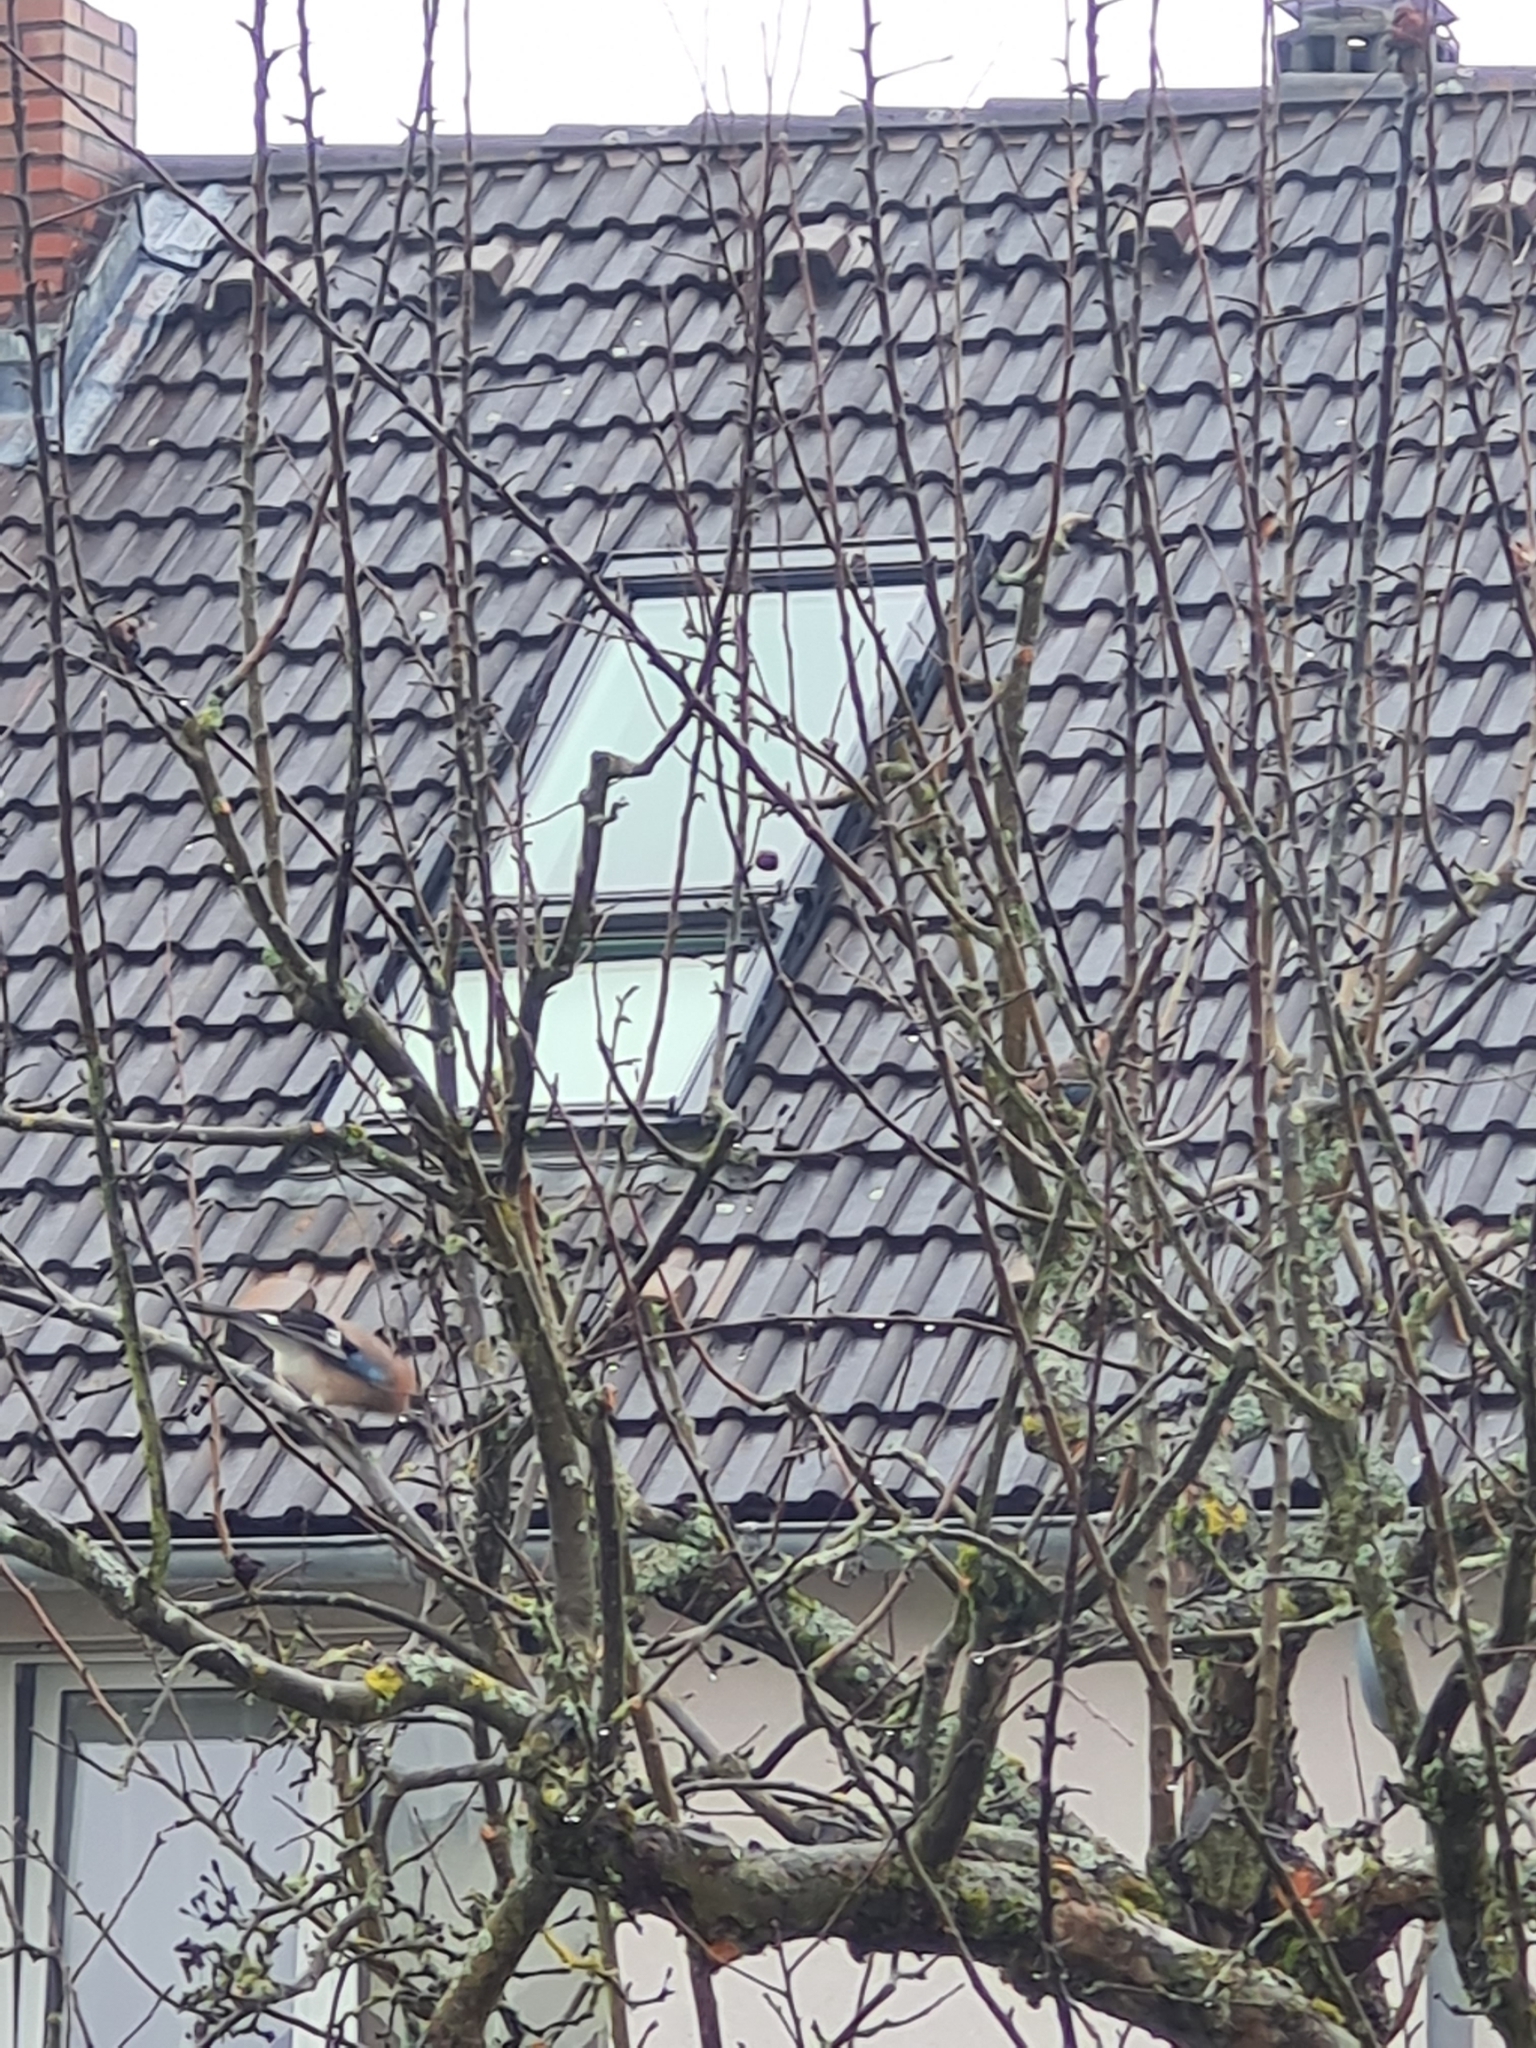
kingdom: Animalia
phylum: Chordata
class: Aves
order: Passeriformes
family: Corvidae
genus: Garrulus
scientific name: Garrulus glandarius
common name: Eurasian jay
